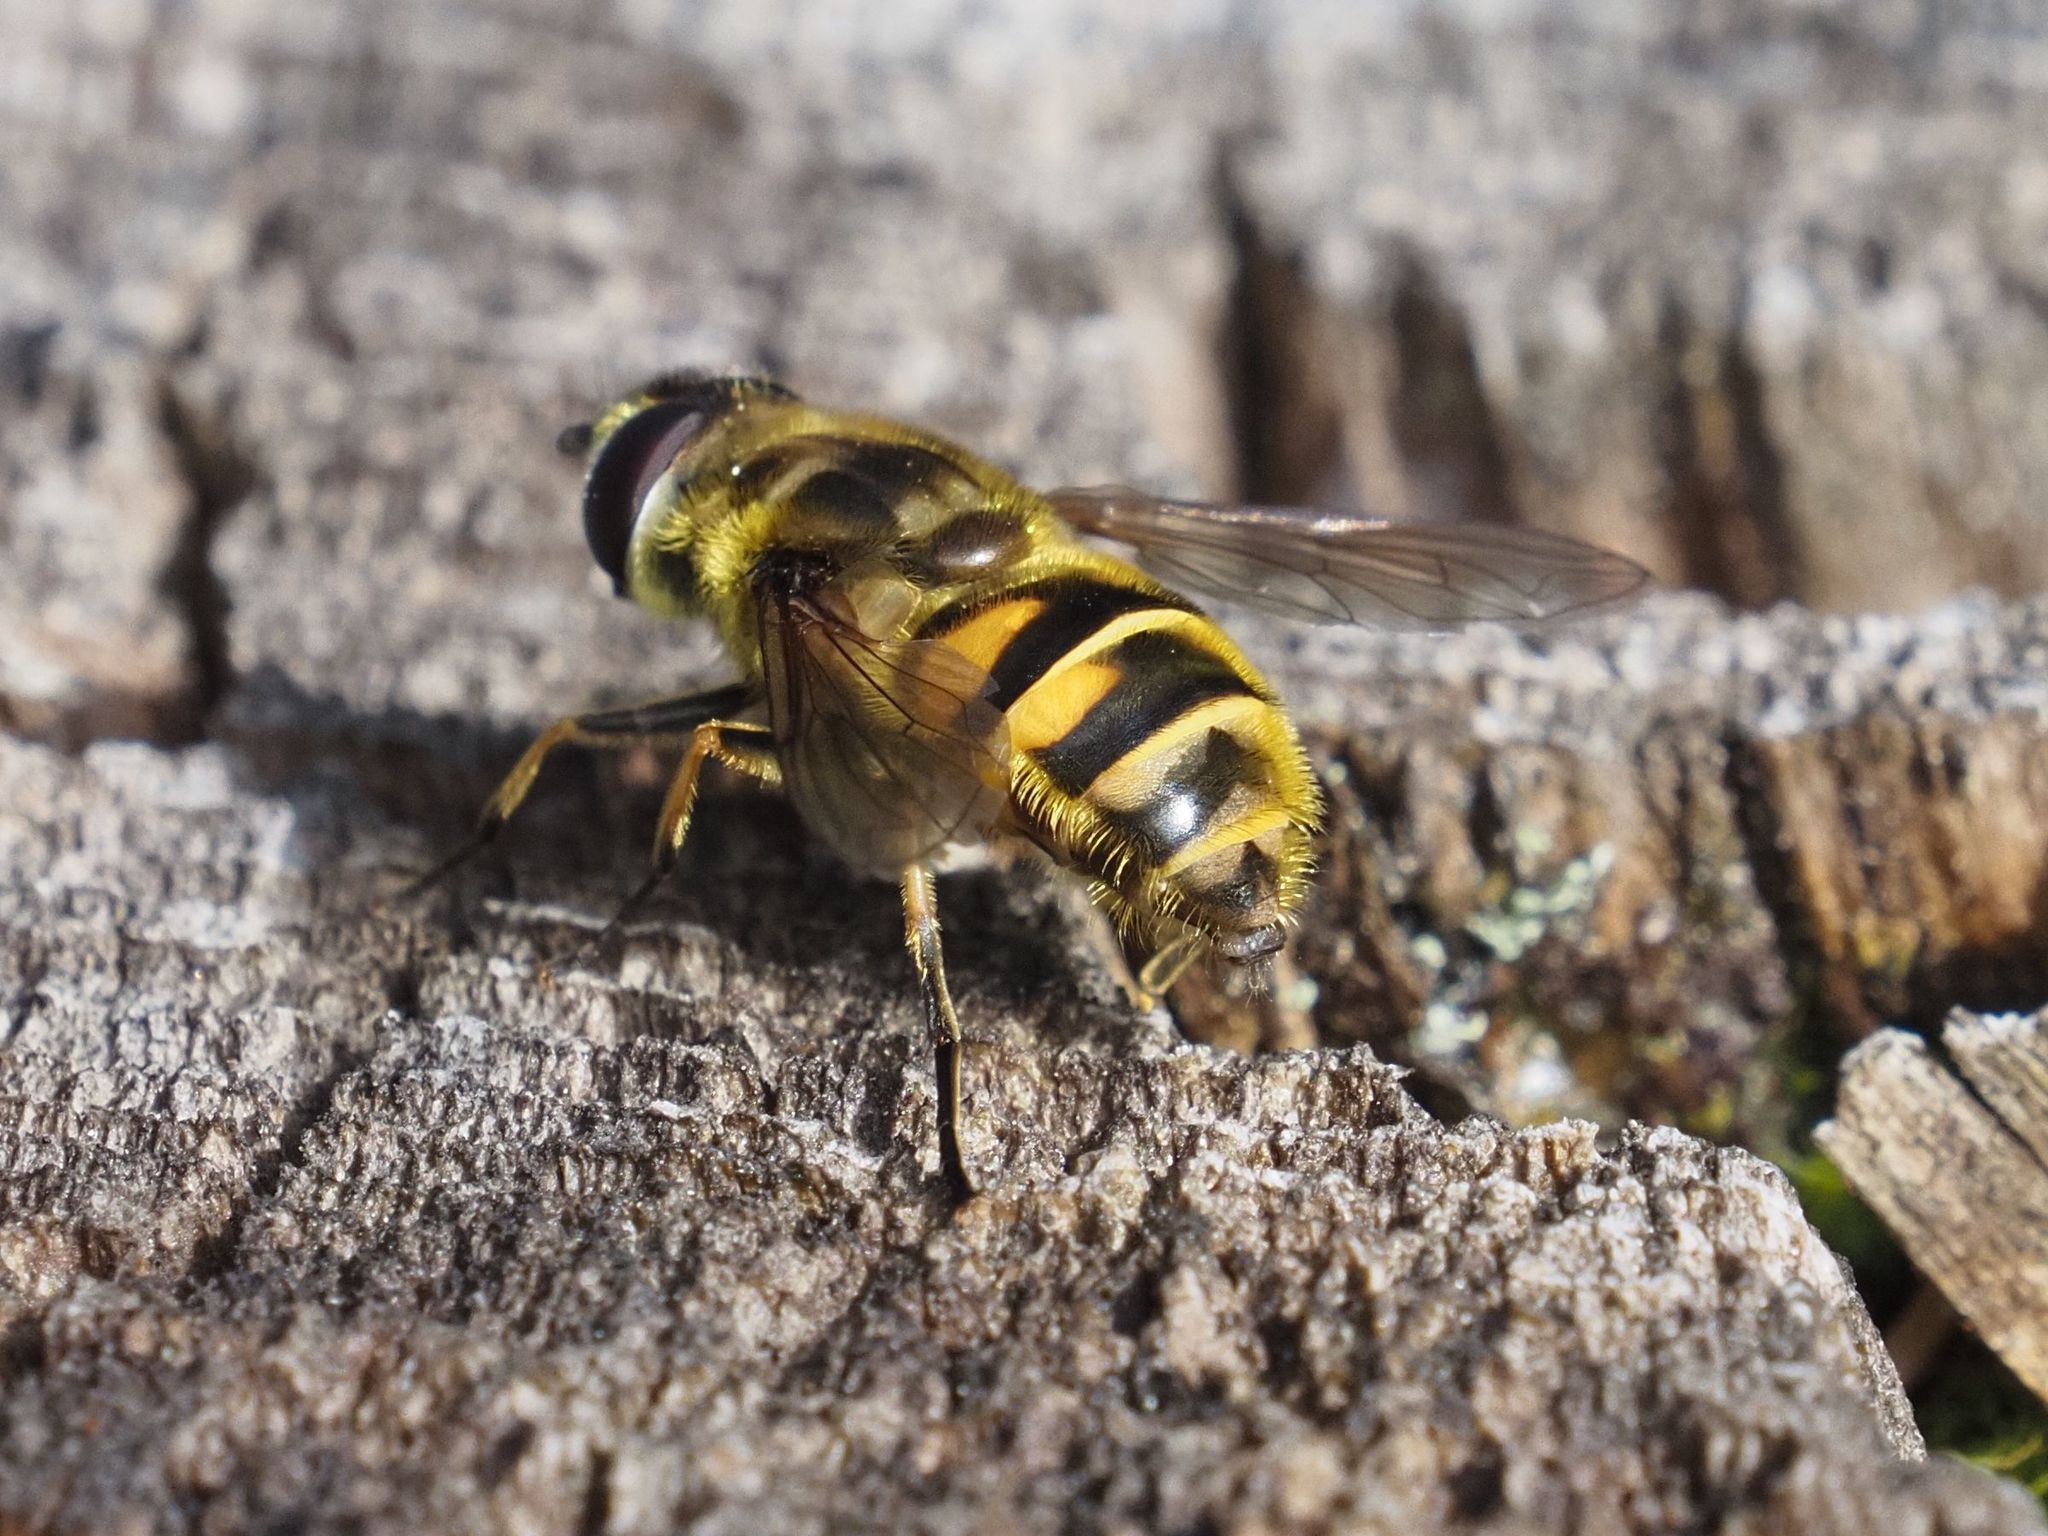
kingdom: Animalia
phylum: Arthropoda
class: Insecta
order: Diptera
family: Syrphidae
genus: Myathropa
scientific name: Myathropa florea
